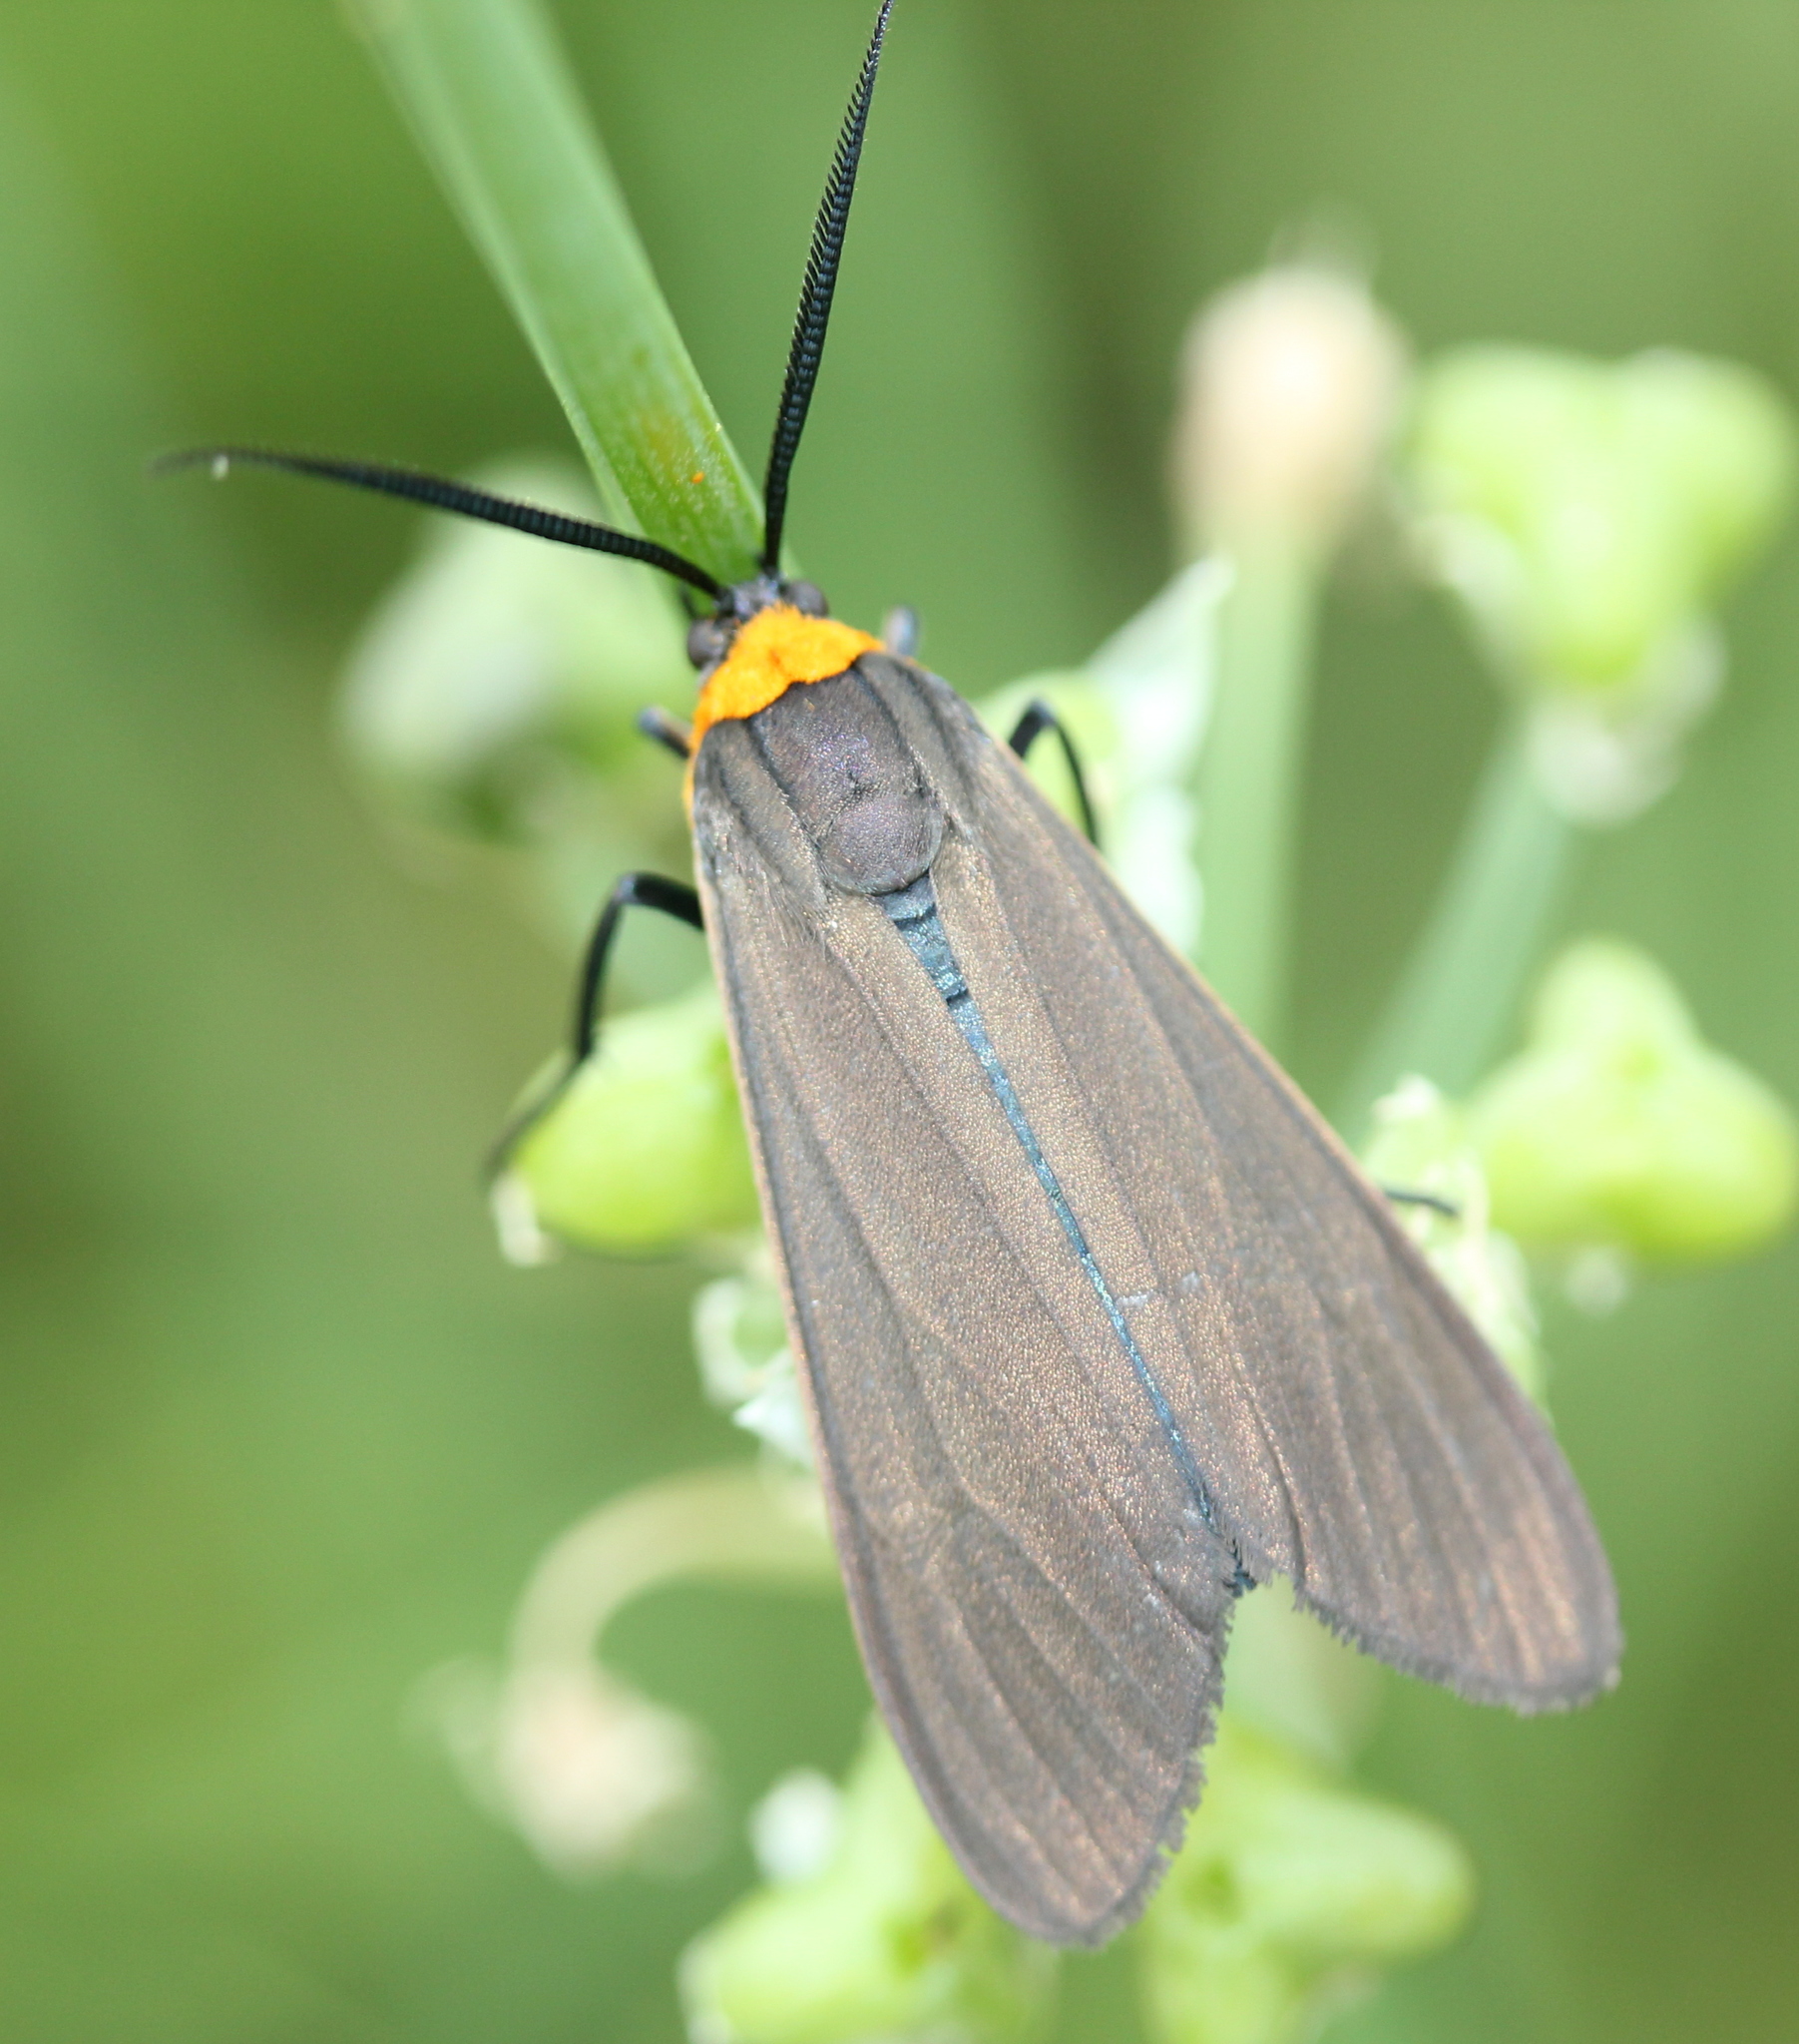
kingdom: Animalia
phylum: Arthropoda
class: Insecta
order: Lepidoptera
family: Erebidae
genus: Cisseps
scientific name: Cisseps fulvicollis
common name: Yellow-collared scape moth
